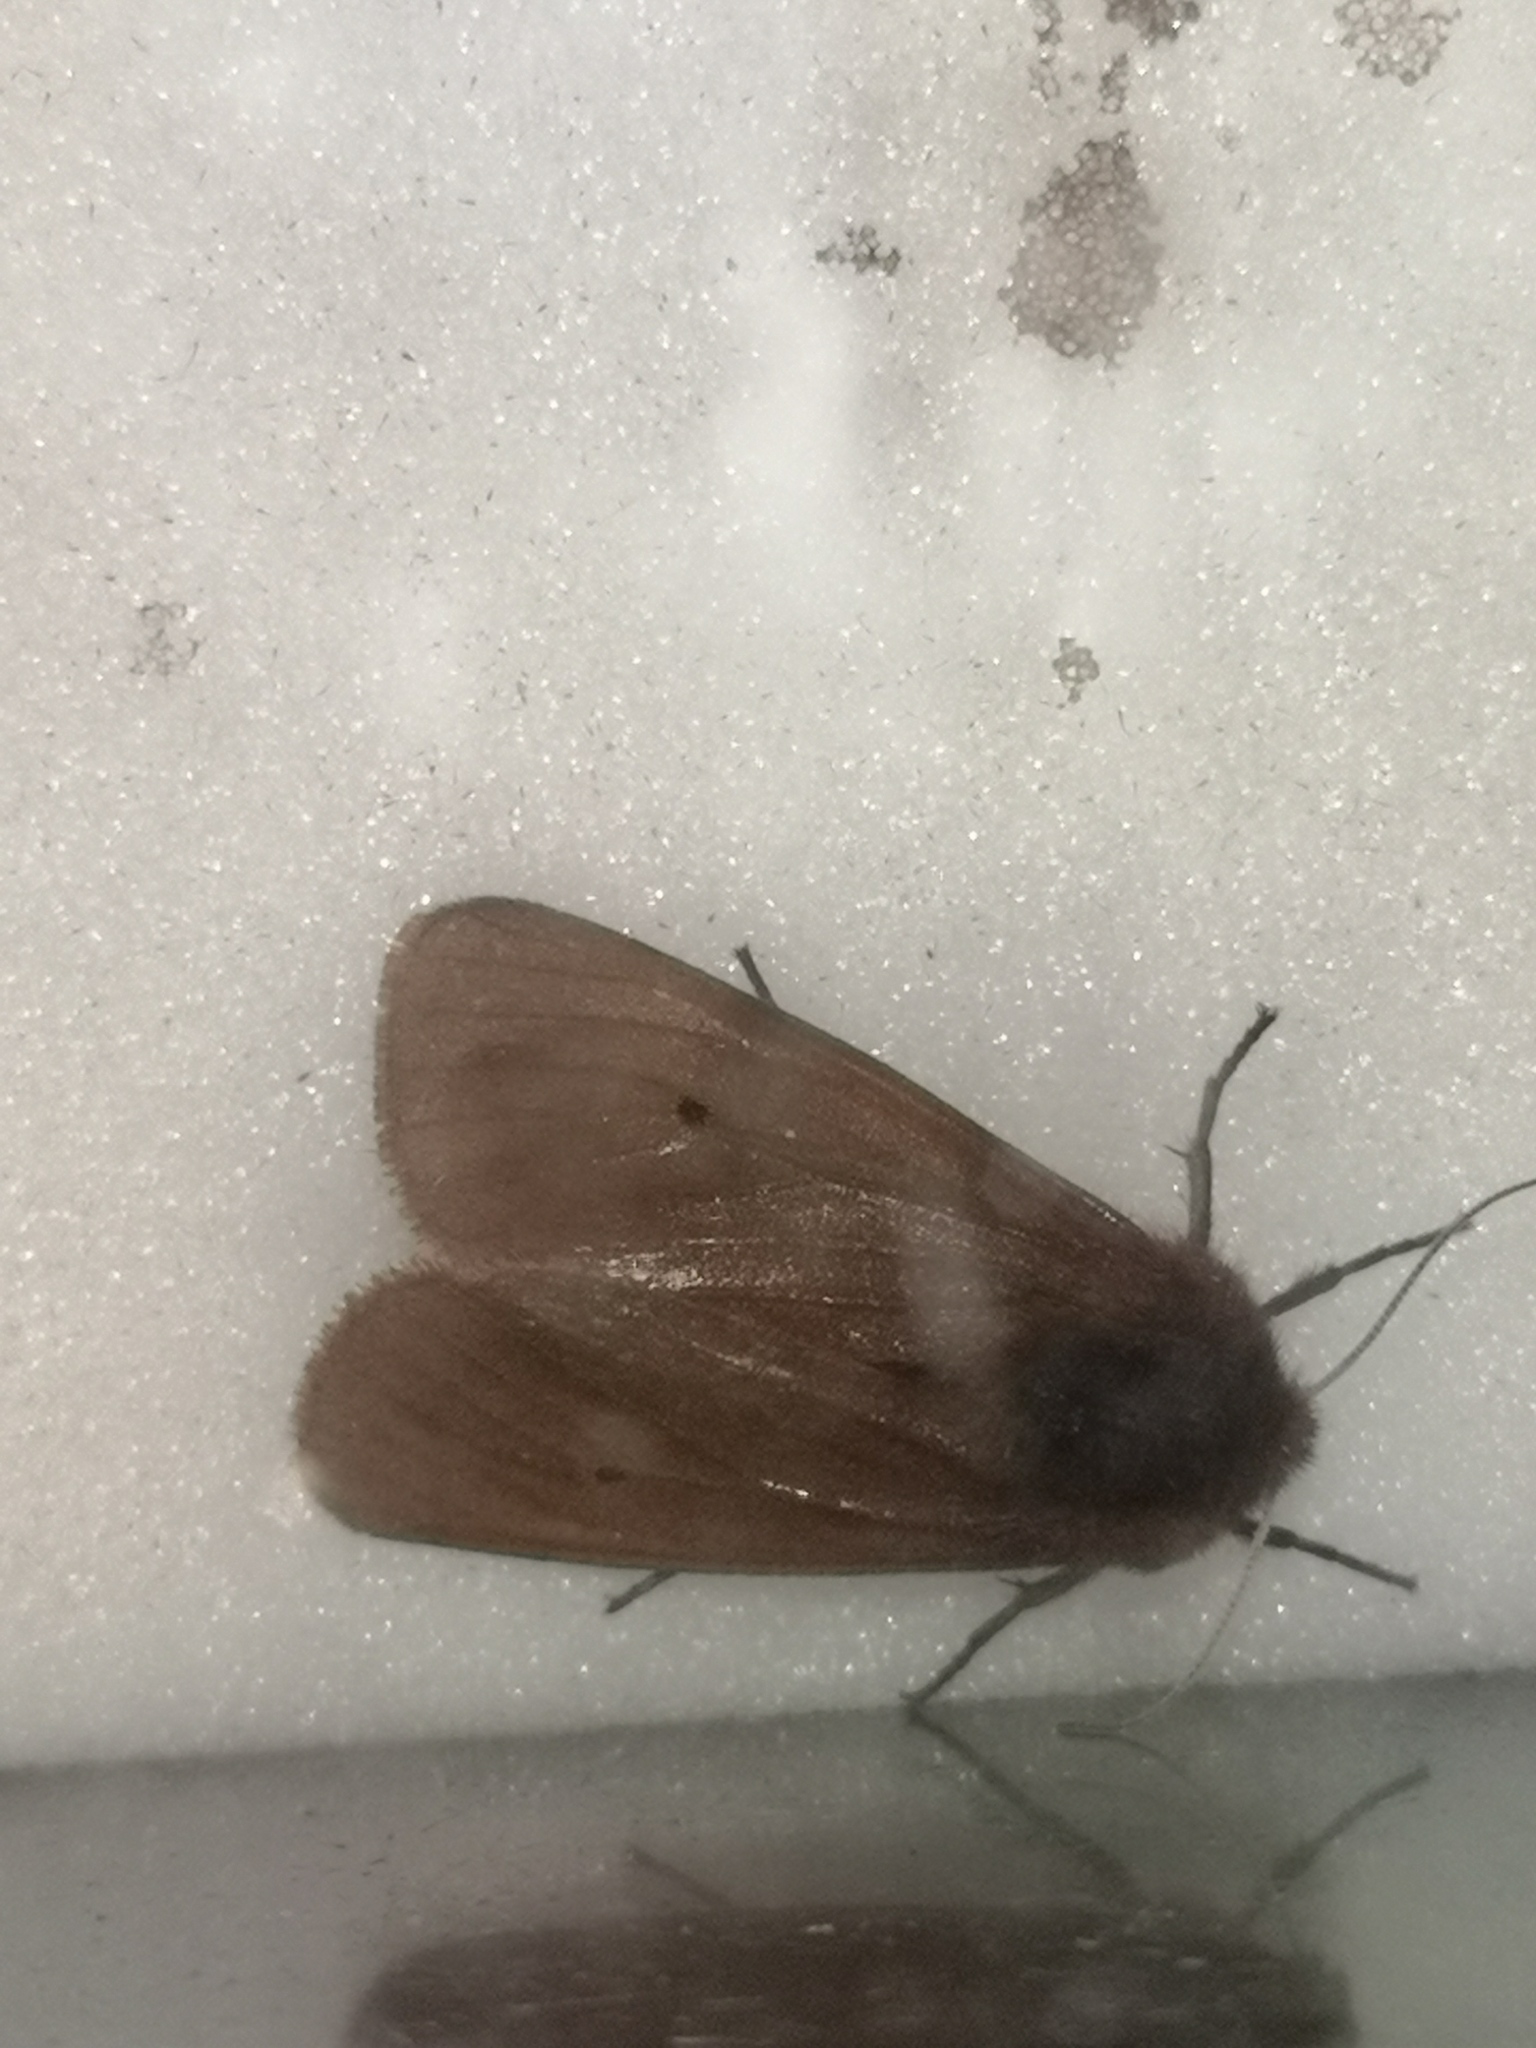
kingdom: Animalia
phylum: Arthropoda
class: Insecta
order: Lepidoptera
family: Erebidae
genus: Phragmatobia
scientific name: Phragmatobia fuliginosa
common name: Ruby tiger
